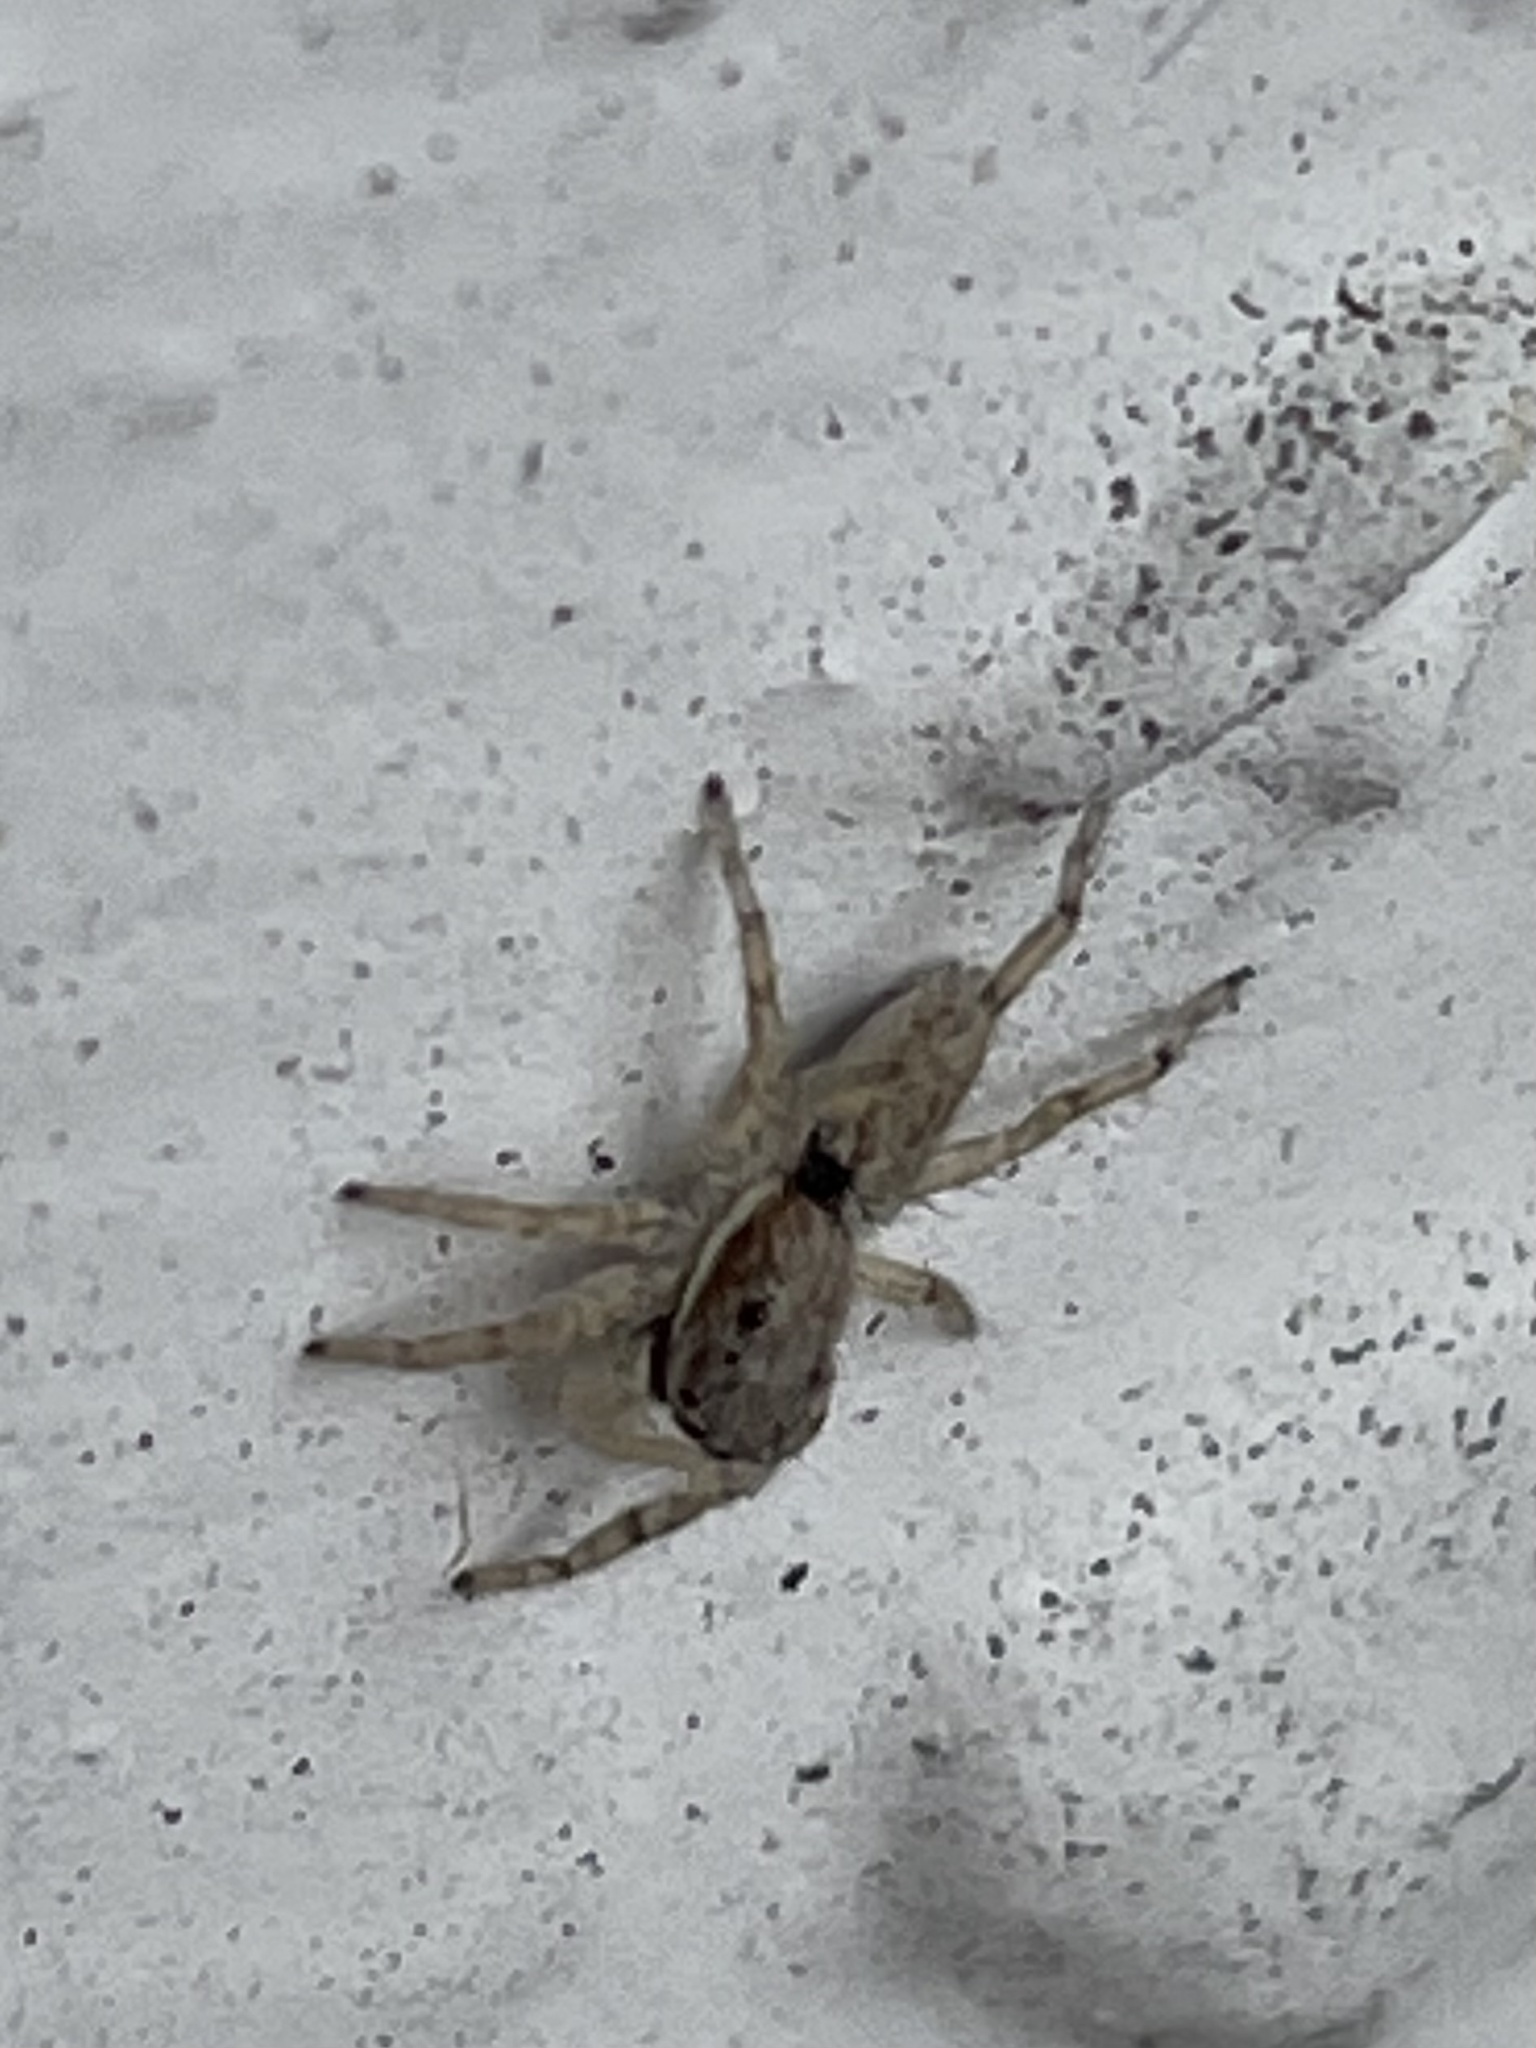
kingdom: Animalia
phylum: Arthropoda
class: Arachnida
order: Araneae
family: Salticidae
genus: Menemerus
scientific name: Menemerus bivittatus
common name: Gray wall jumper
